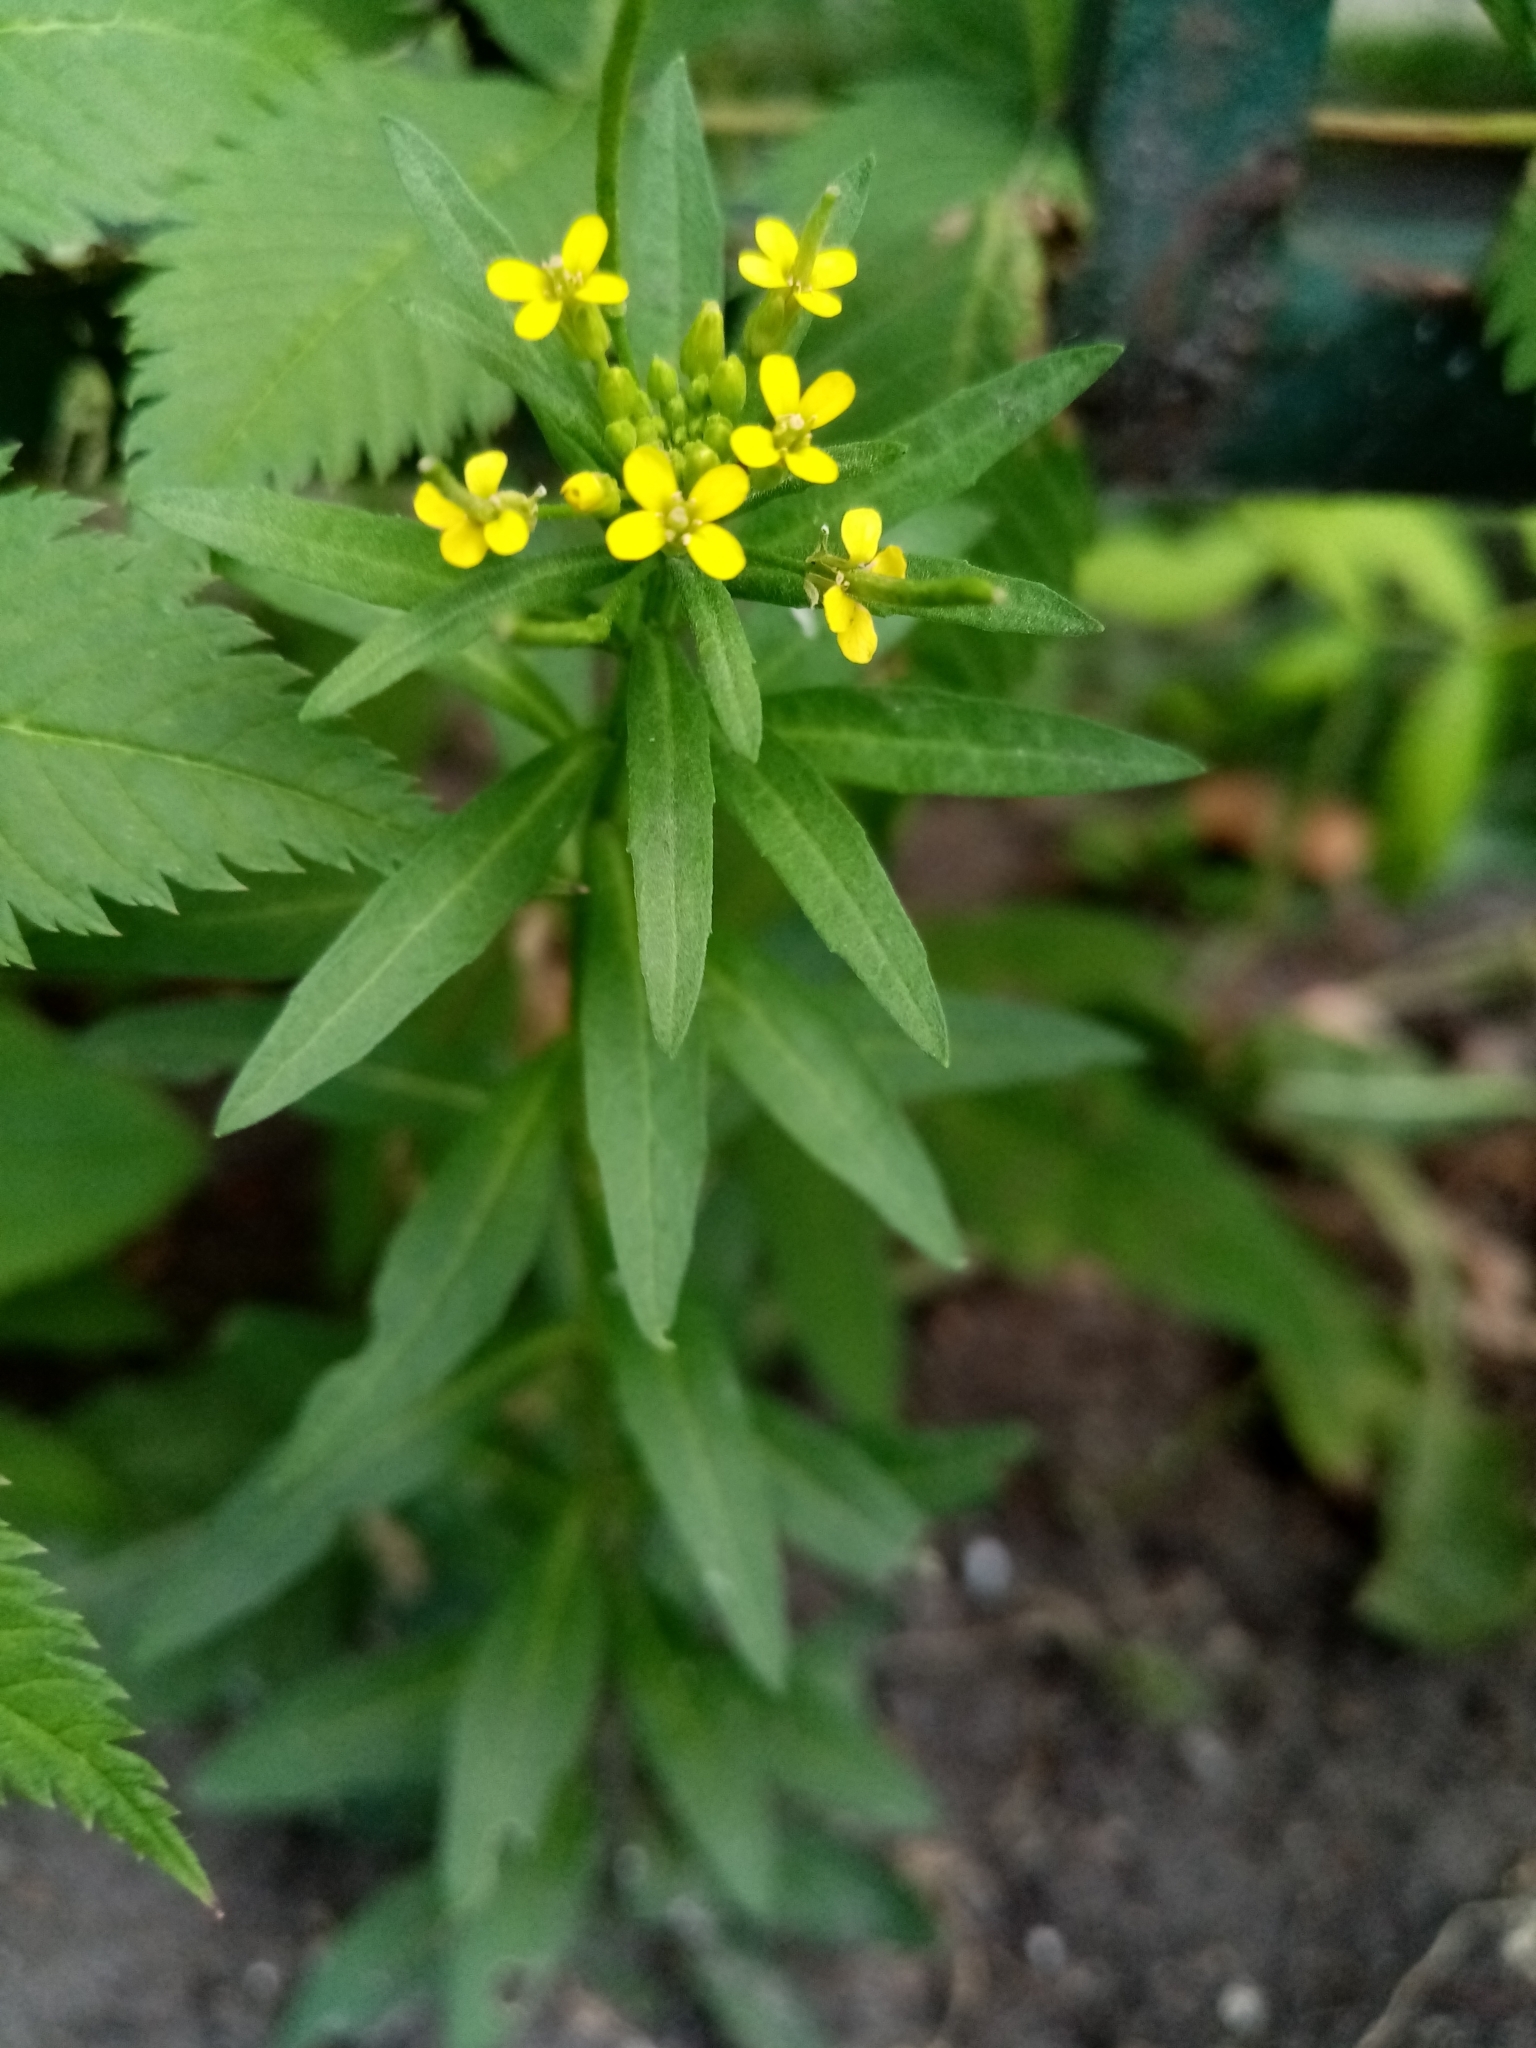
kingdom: Plantae
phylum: Tracheophyta
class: Magnoliopsida
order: Brassicales
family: Brassicaceae
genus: Erysimum
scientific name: Erysimum cheiranthoides
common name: Treacle mustard
